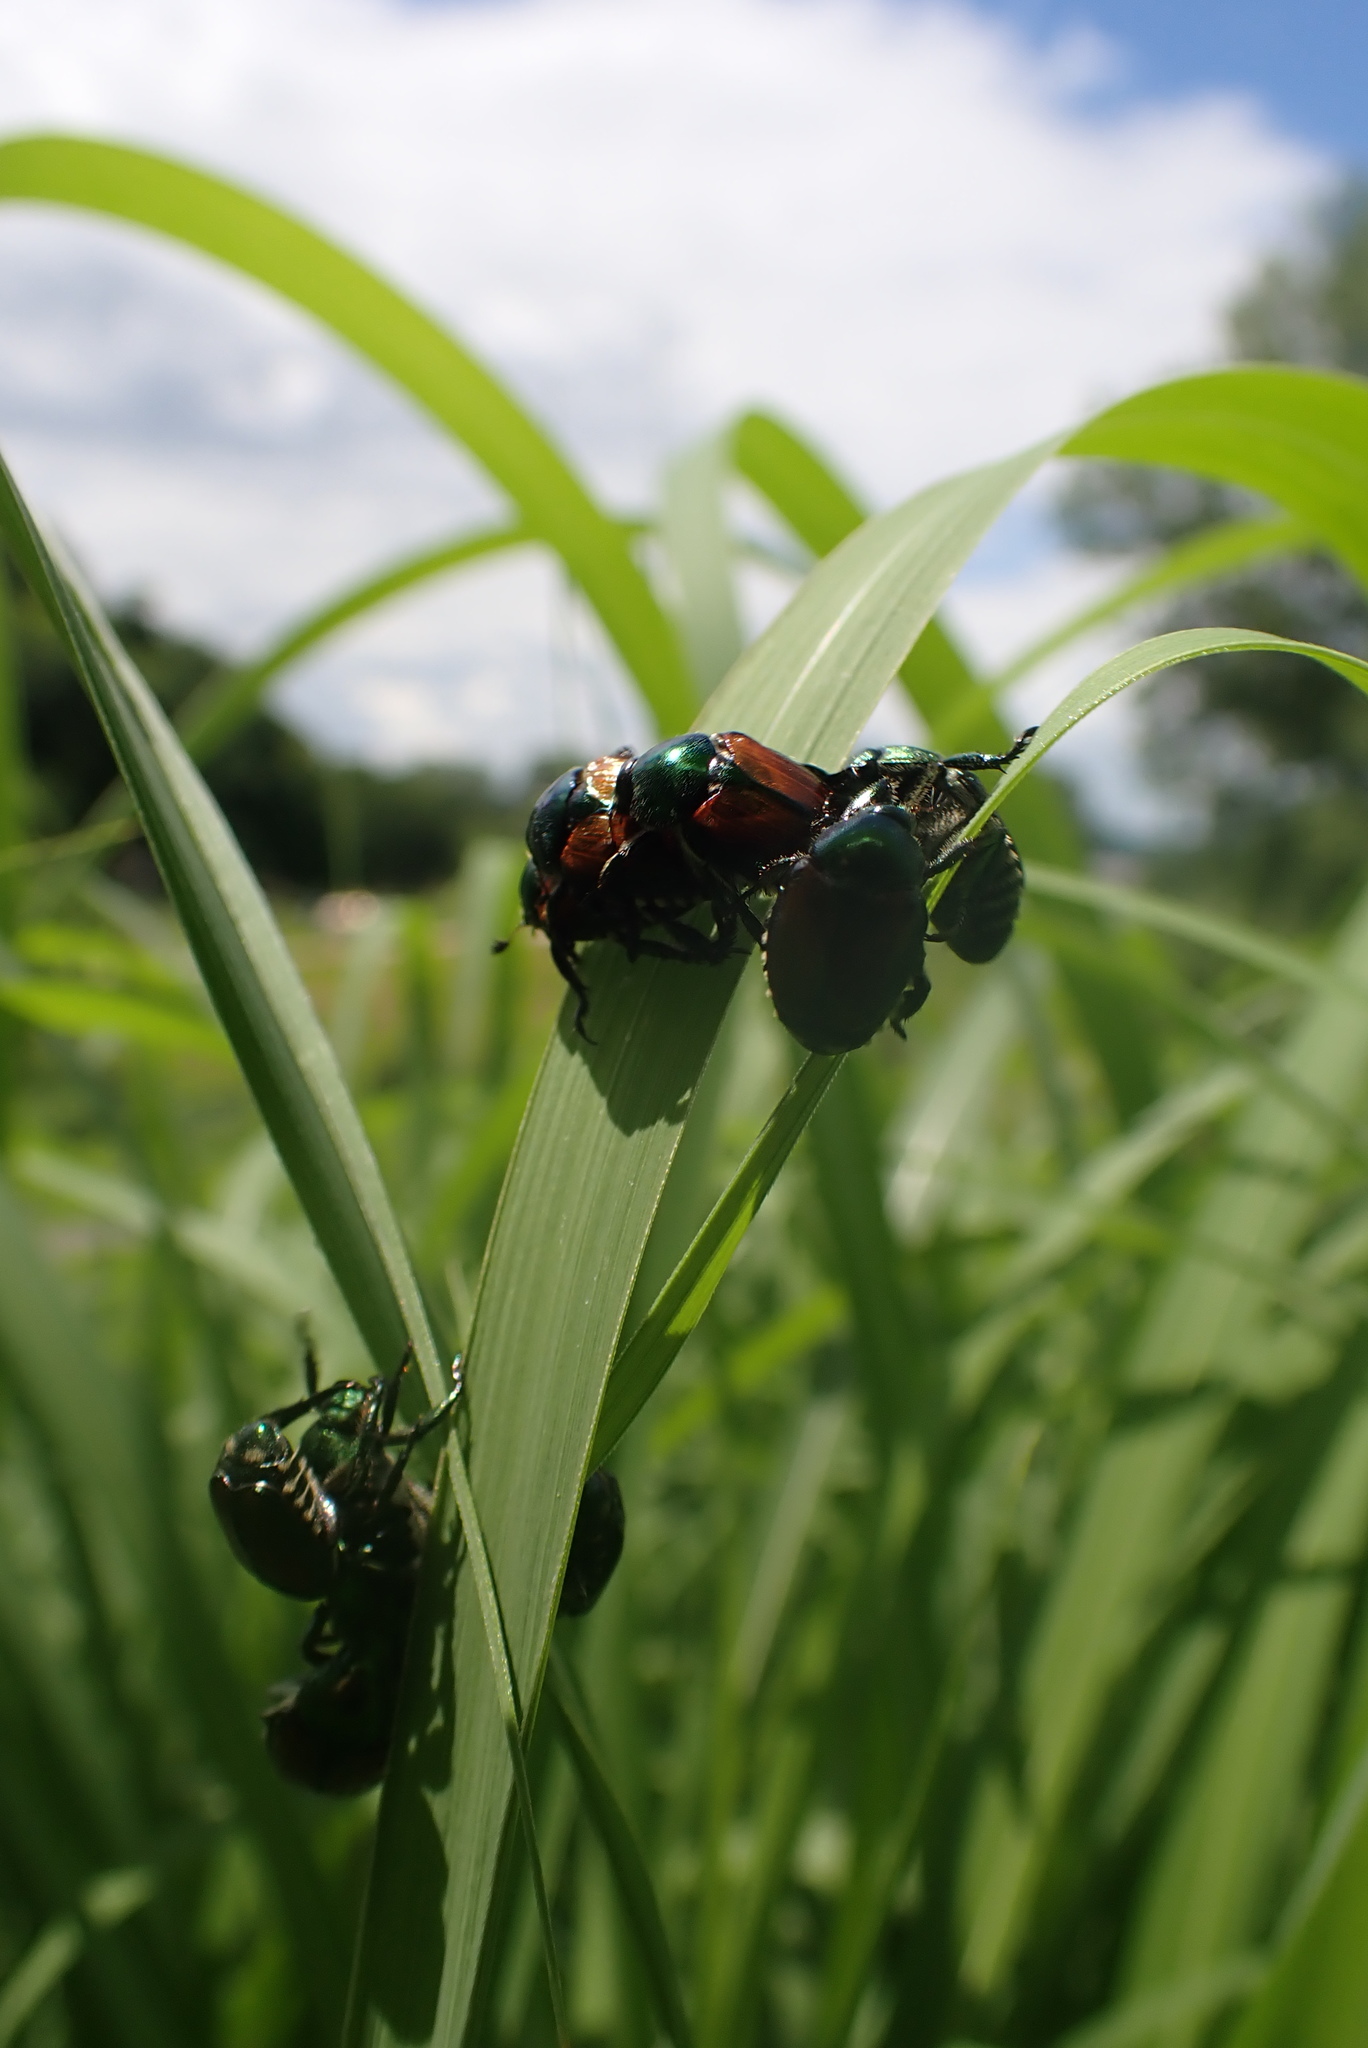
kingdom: Animalia
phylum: Arthropoda
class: Insecta
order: Coleoptera
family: Scarabaeidae
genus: Popillia
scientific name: Popillia japonica
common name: Japanese beetle
